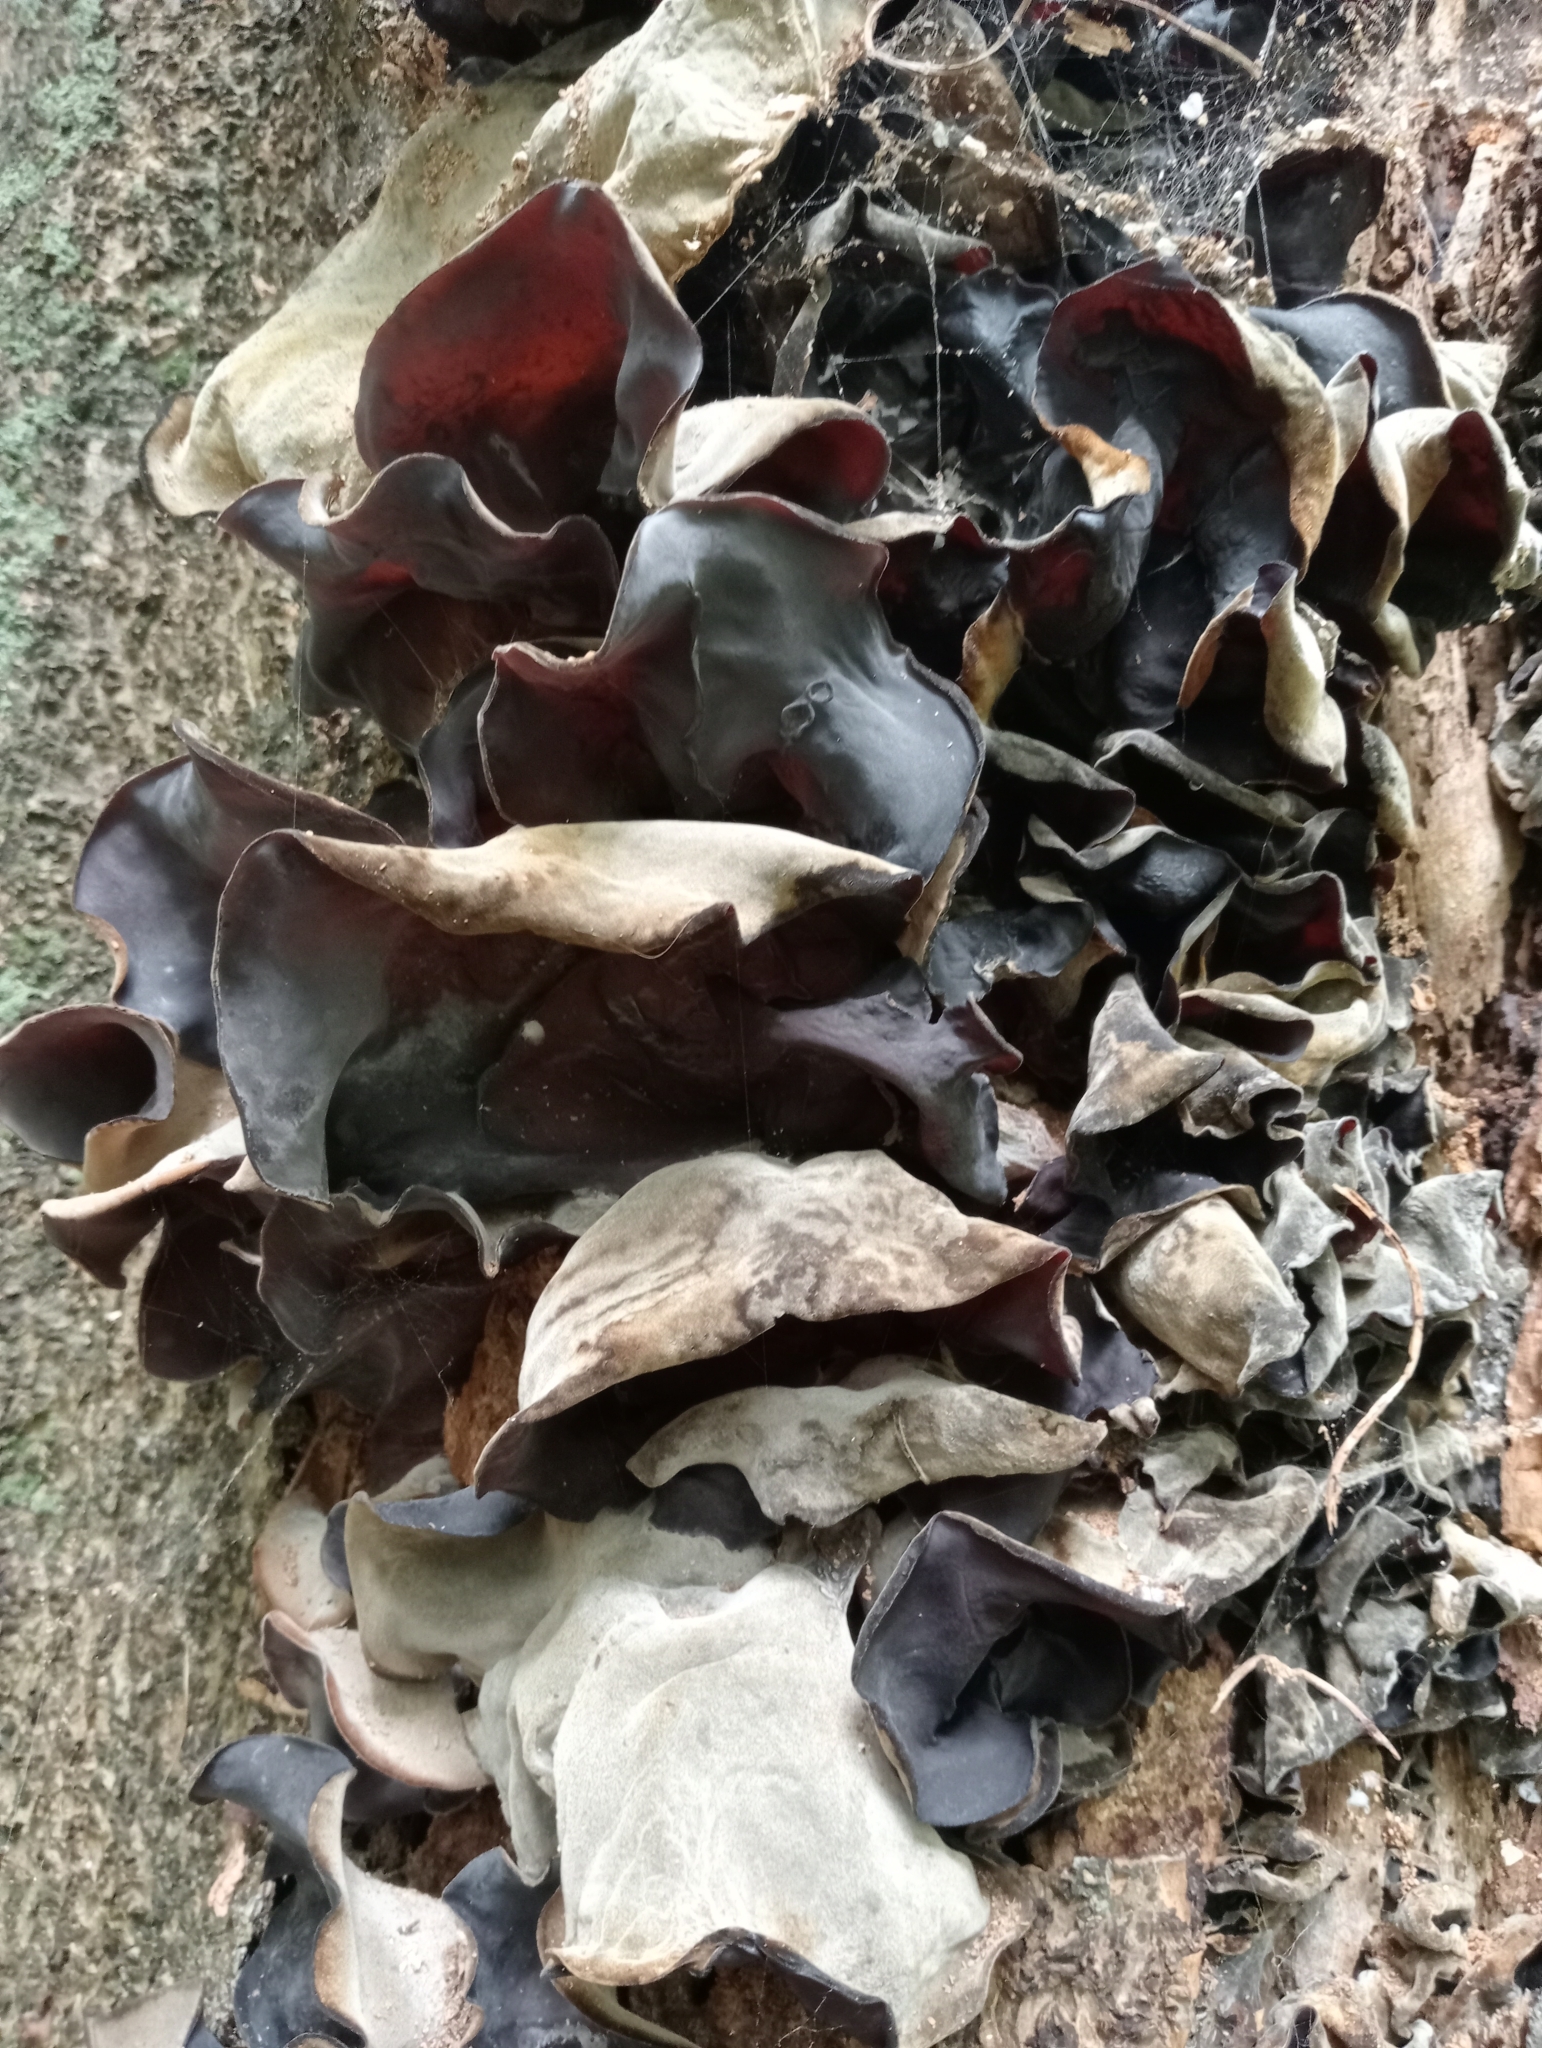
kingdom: Fungi
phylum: Basidiomycota
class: Agaricomycetes
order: Auriculariales
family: Auriculariaceae
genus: Auricularia
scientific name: Auricularia cornea
